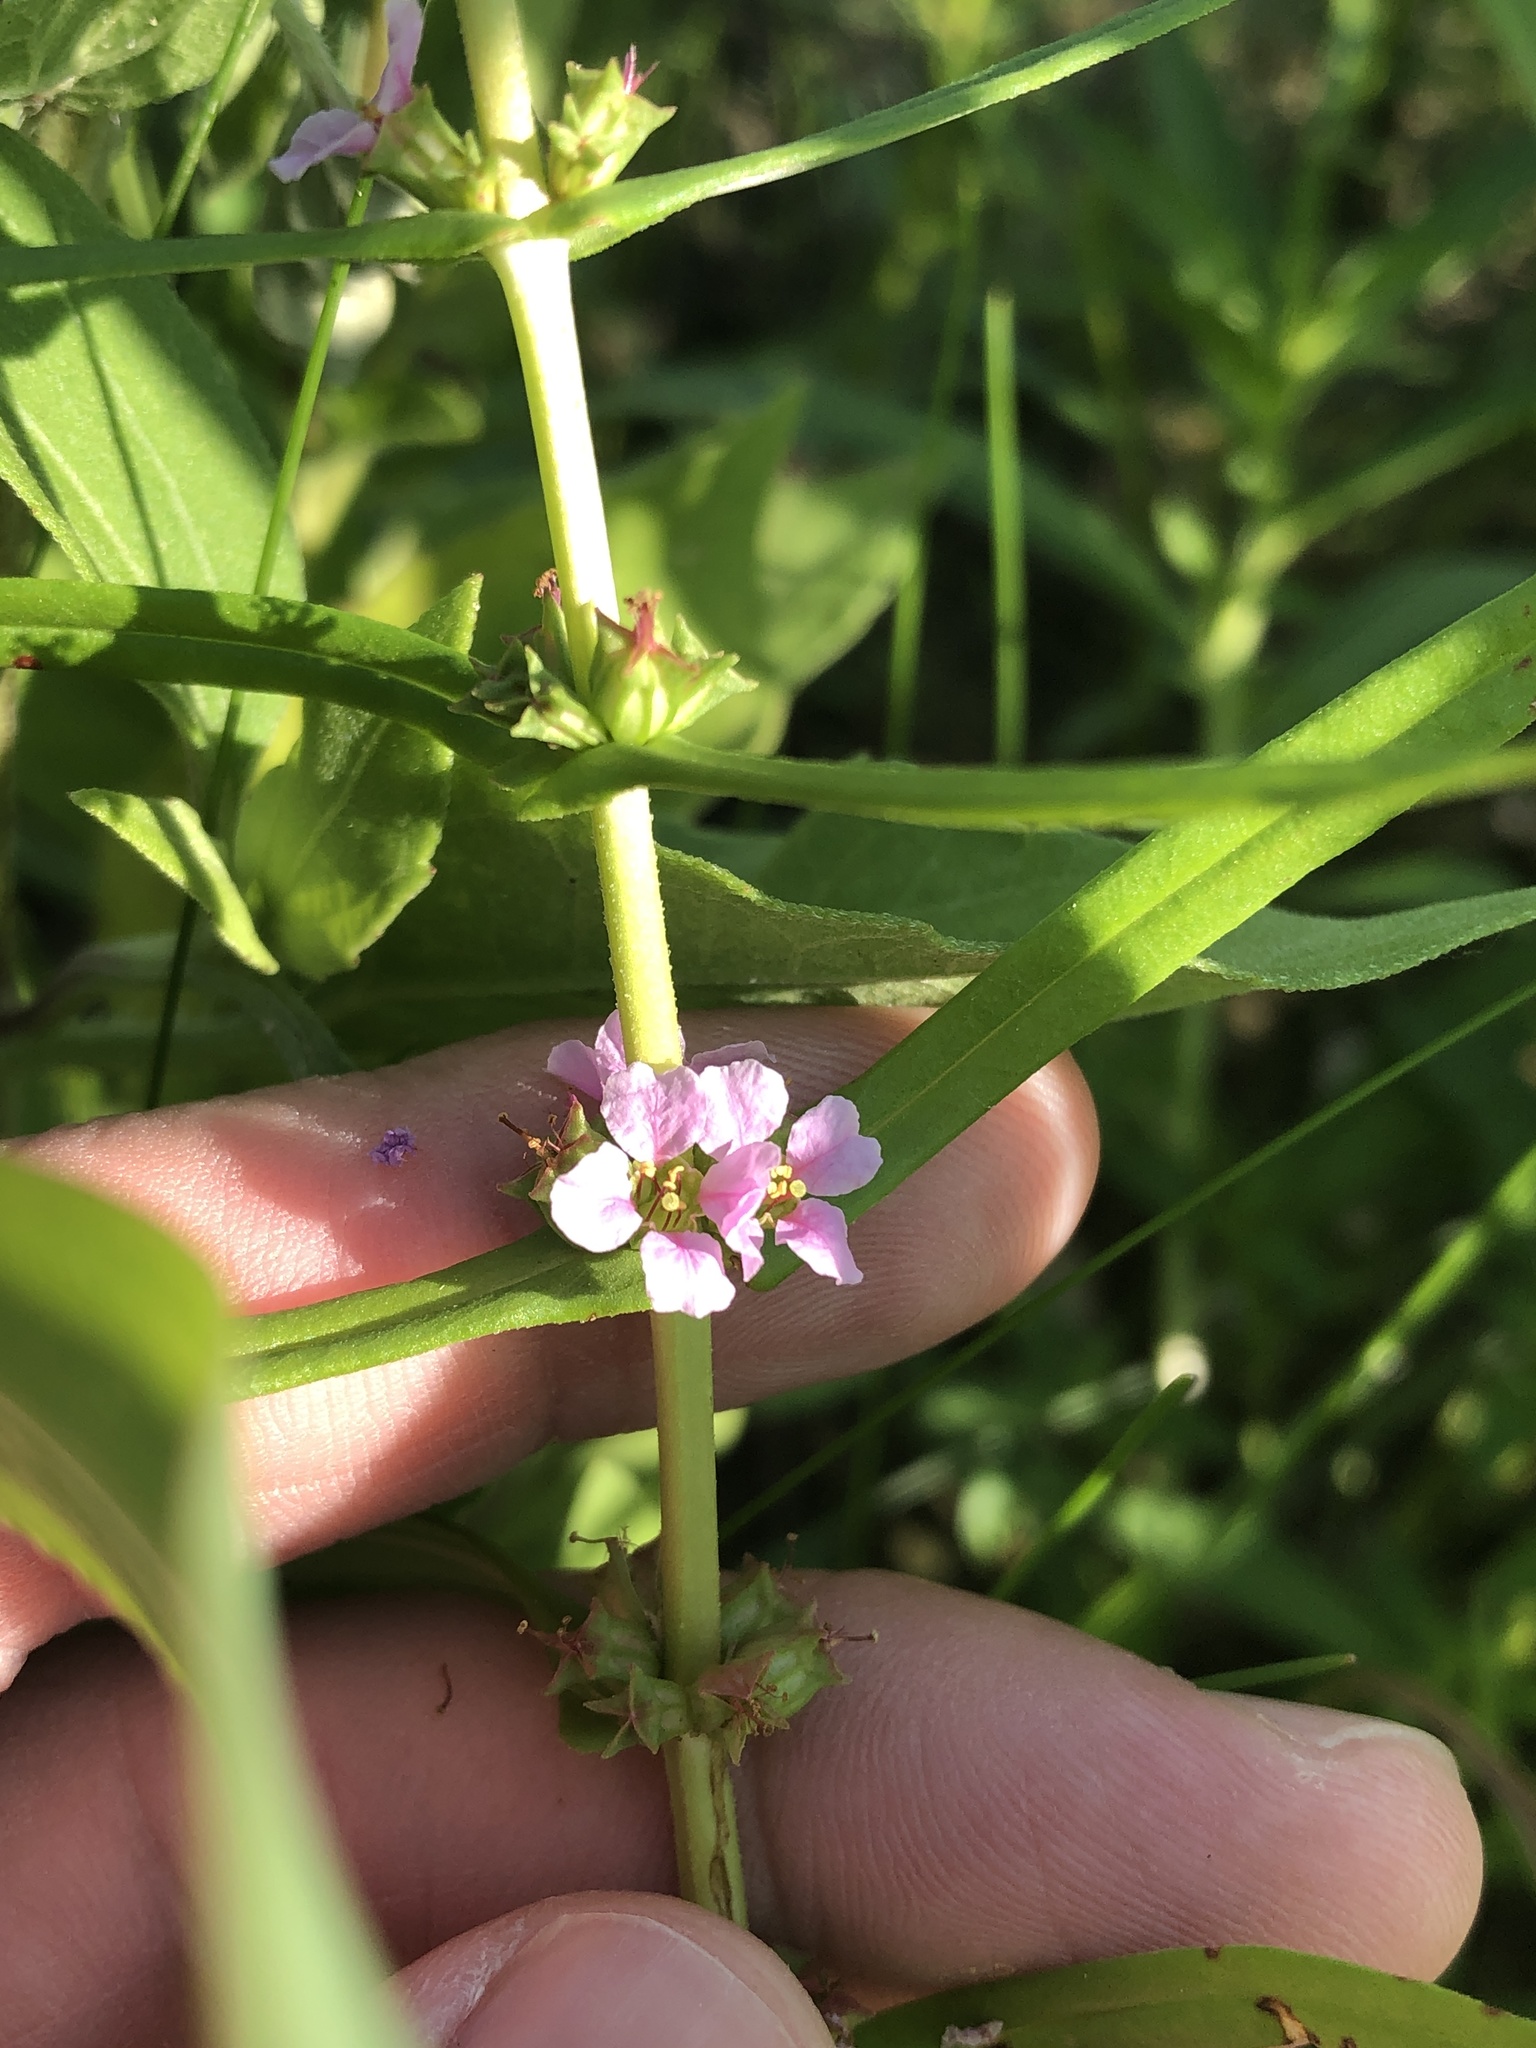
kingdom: Plantae
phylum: Tracheophyta
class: Magnoliopsida
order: Myrtales
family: Lythraceae
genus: Ammannia
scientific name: Ammannia coccinea
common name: Valley redstem
